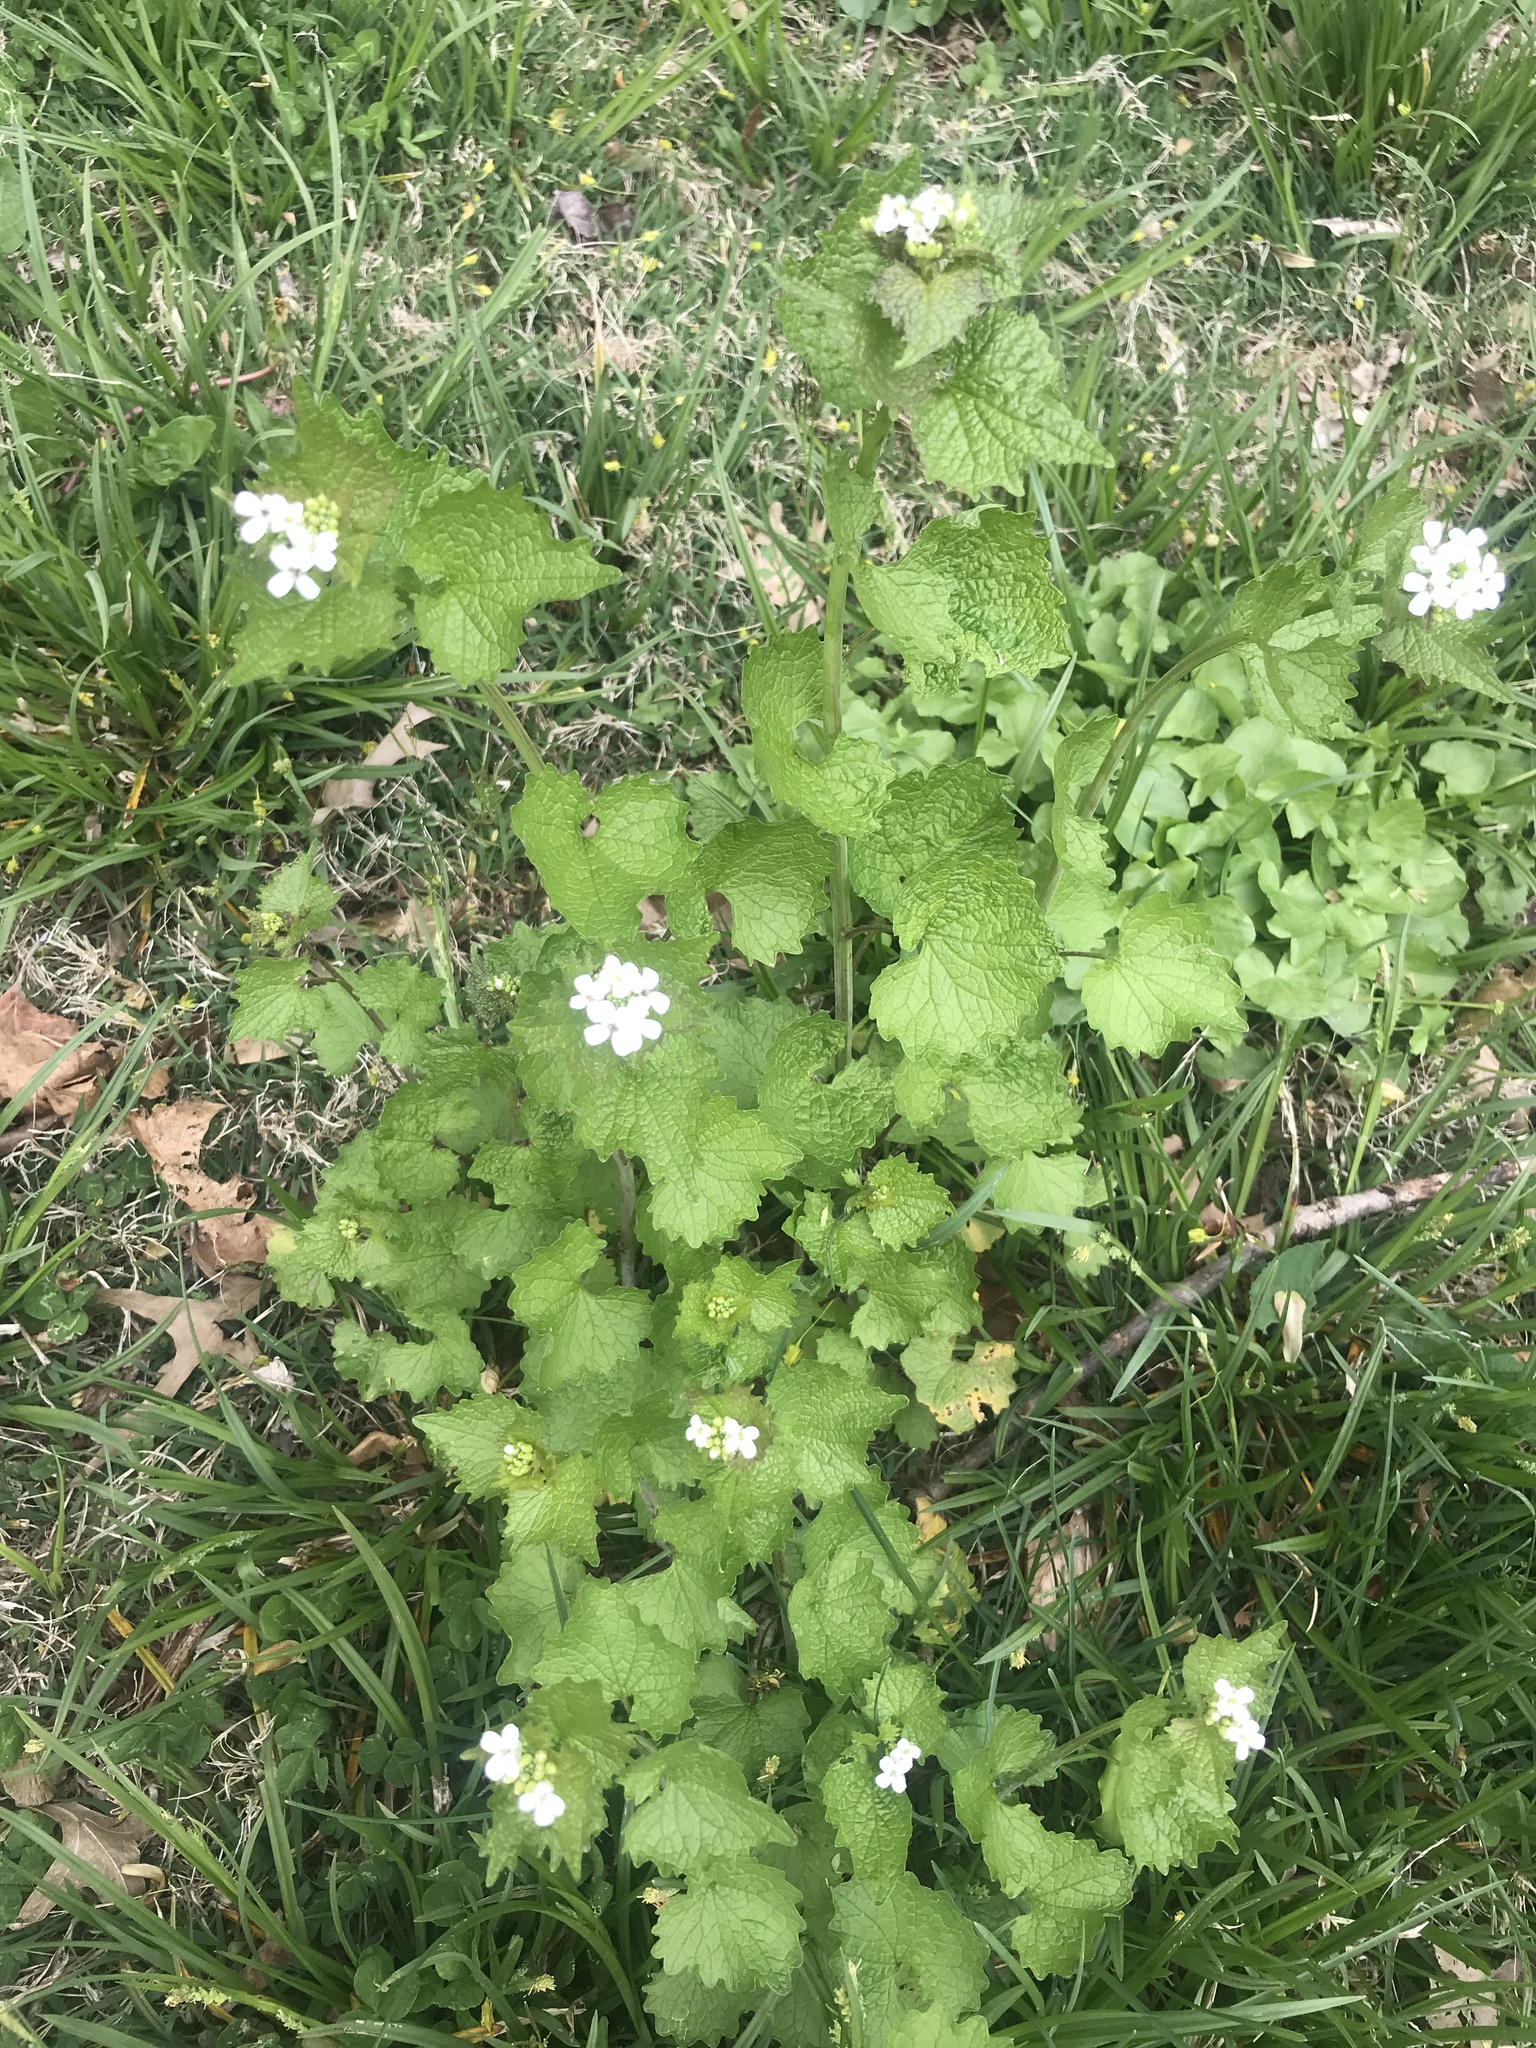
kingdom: Plantae
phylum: Tracheophyta
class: Magnoliopsida
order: Brassicales
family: Brassicaceae
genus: Alliaria
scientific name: Alliaria petiolata
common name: Garlic mustard
